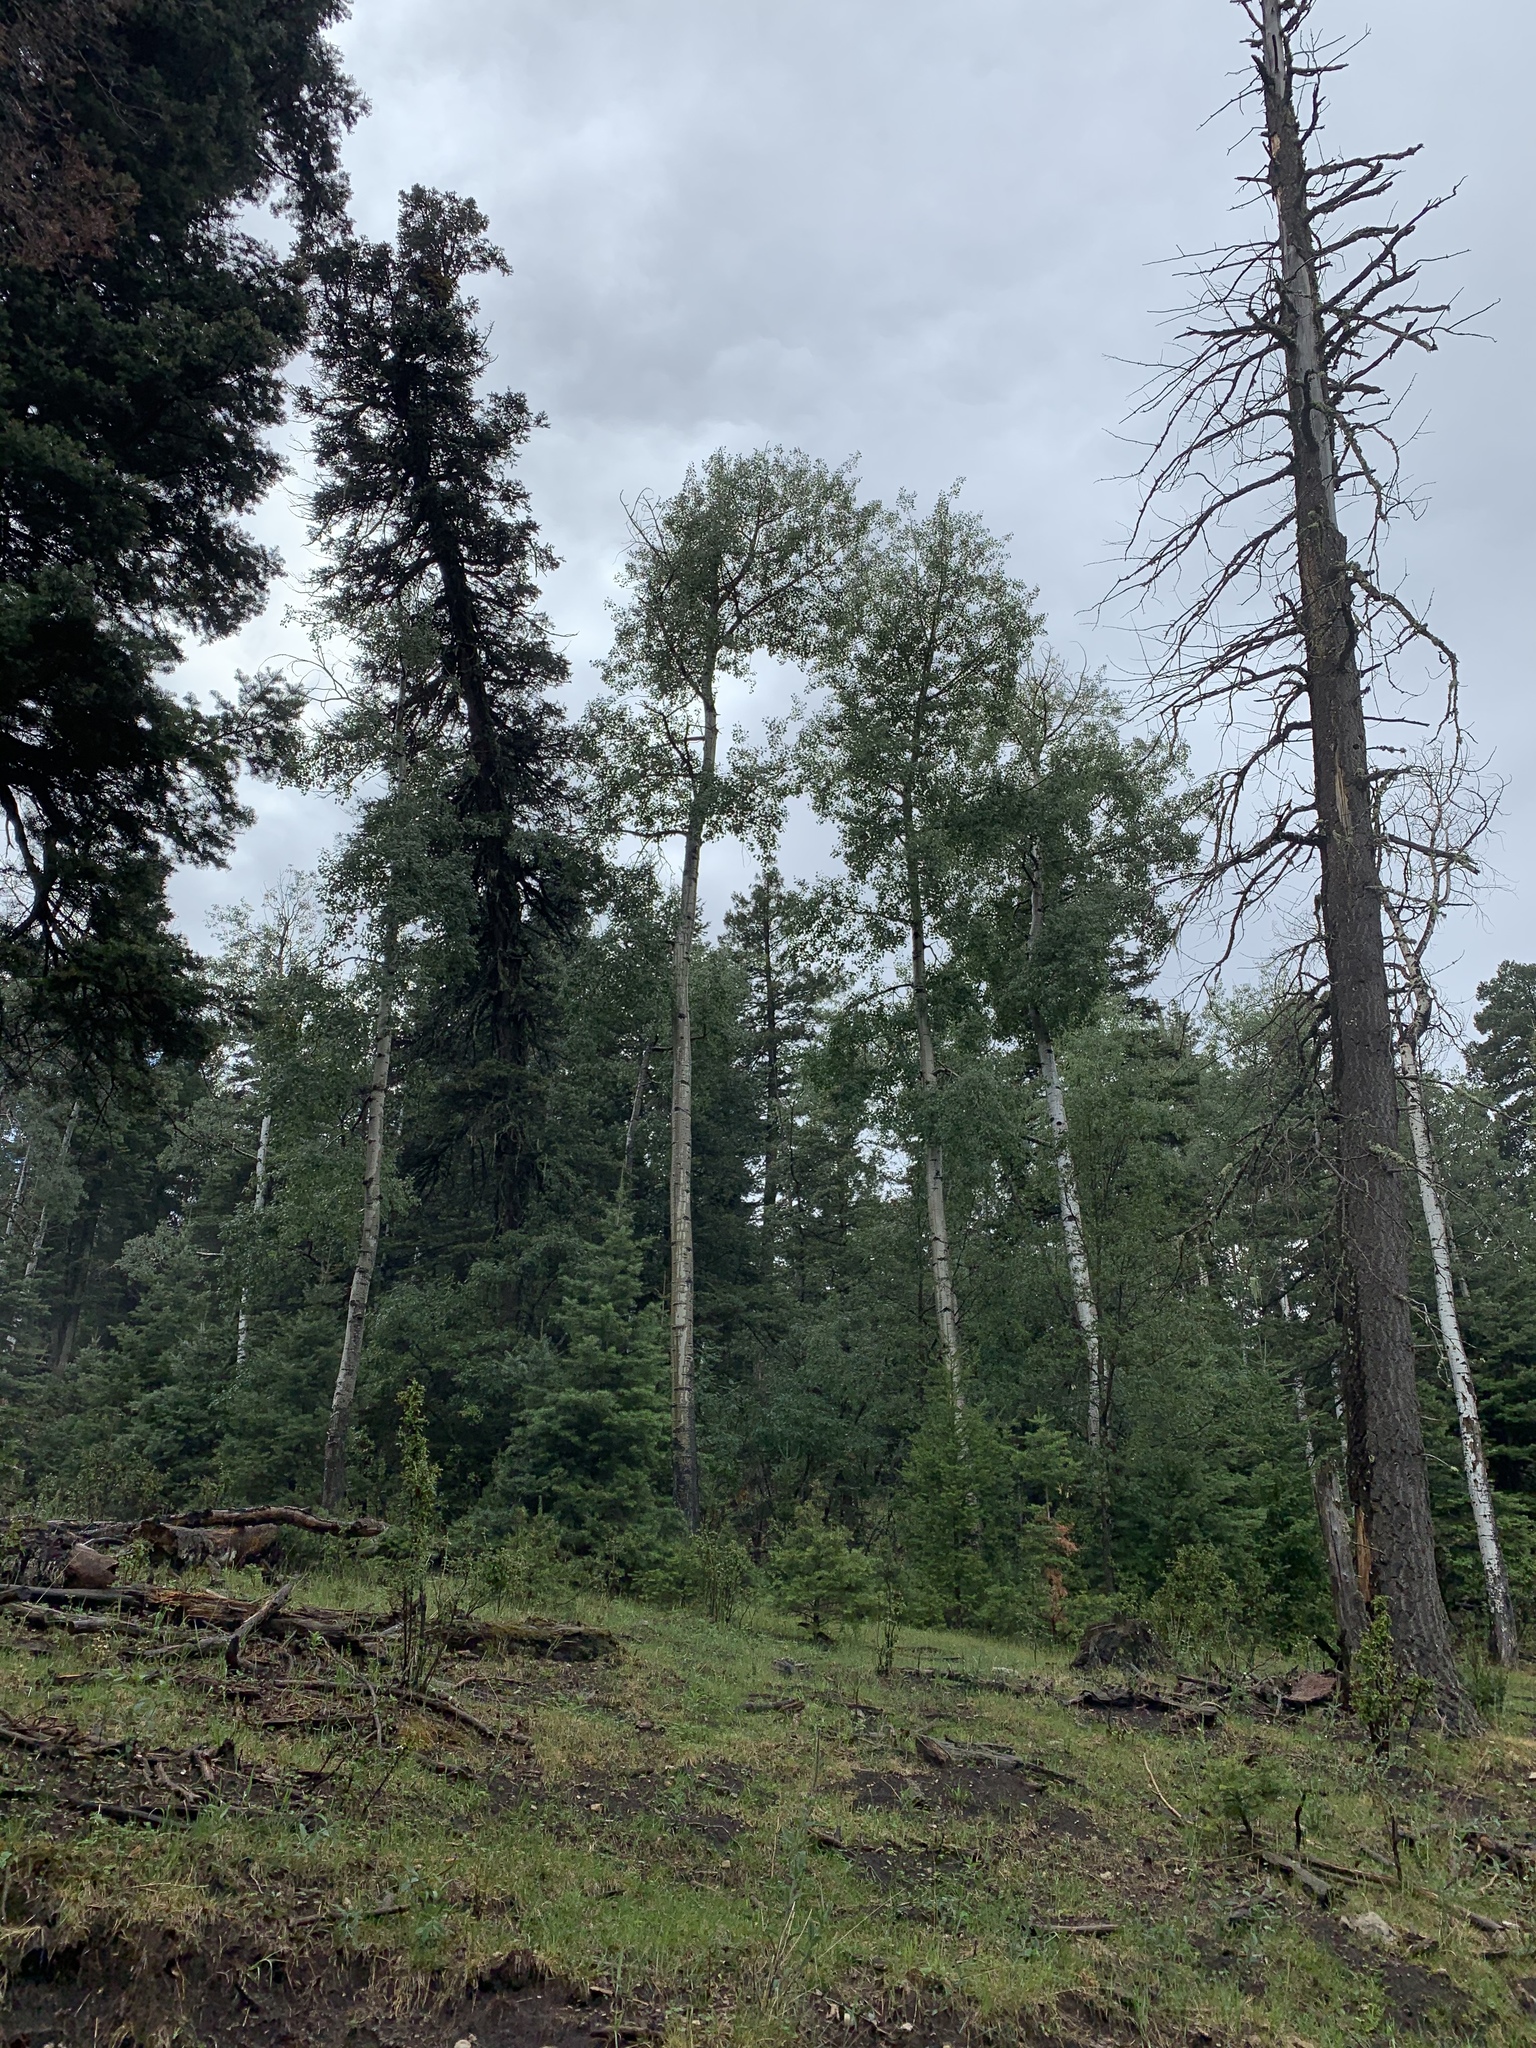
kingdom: Plantae
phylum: Tracheophyta
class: Magnoliopsida
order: Malpighiales
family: Salicaceae
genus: Populus
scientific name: Populus tremuloides
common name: Quaking aspen
